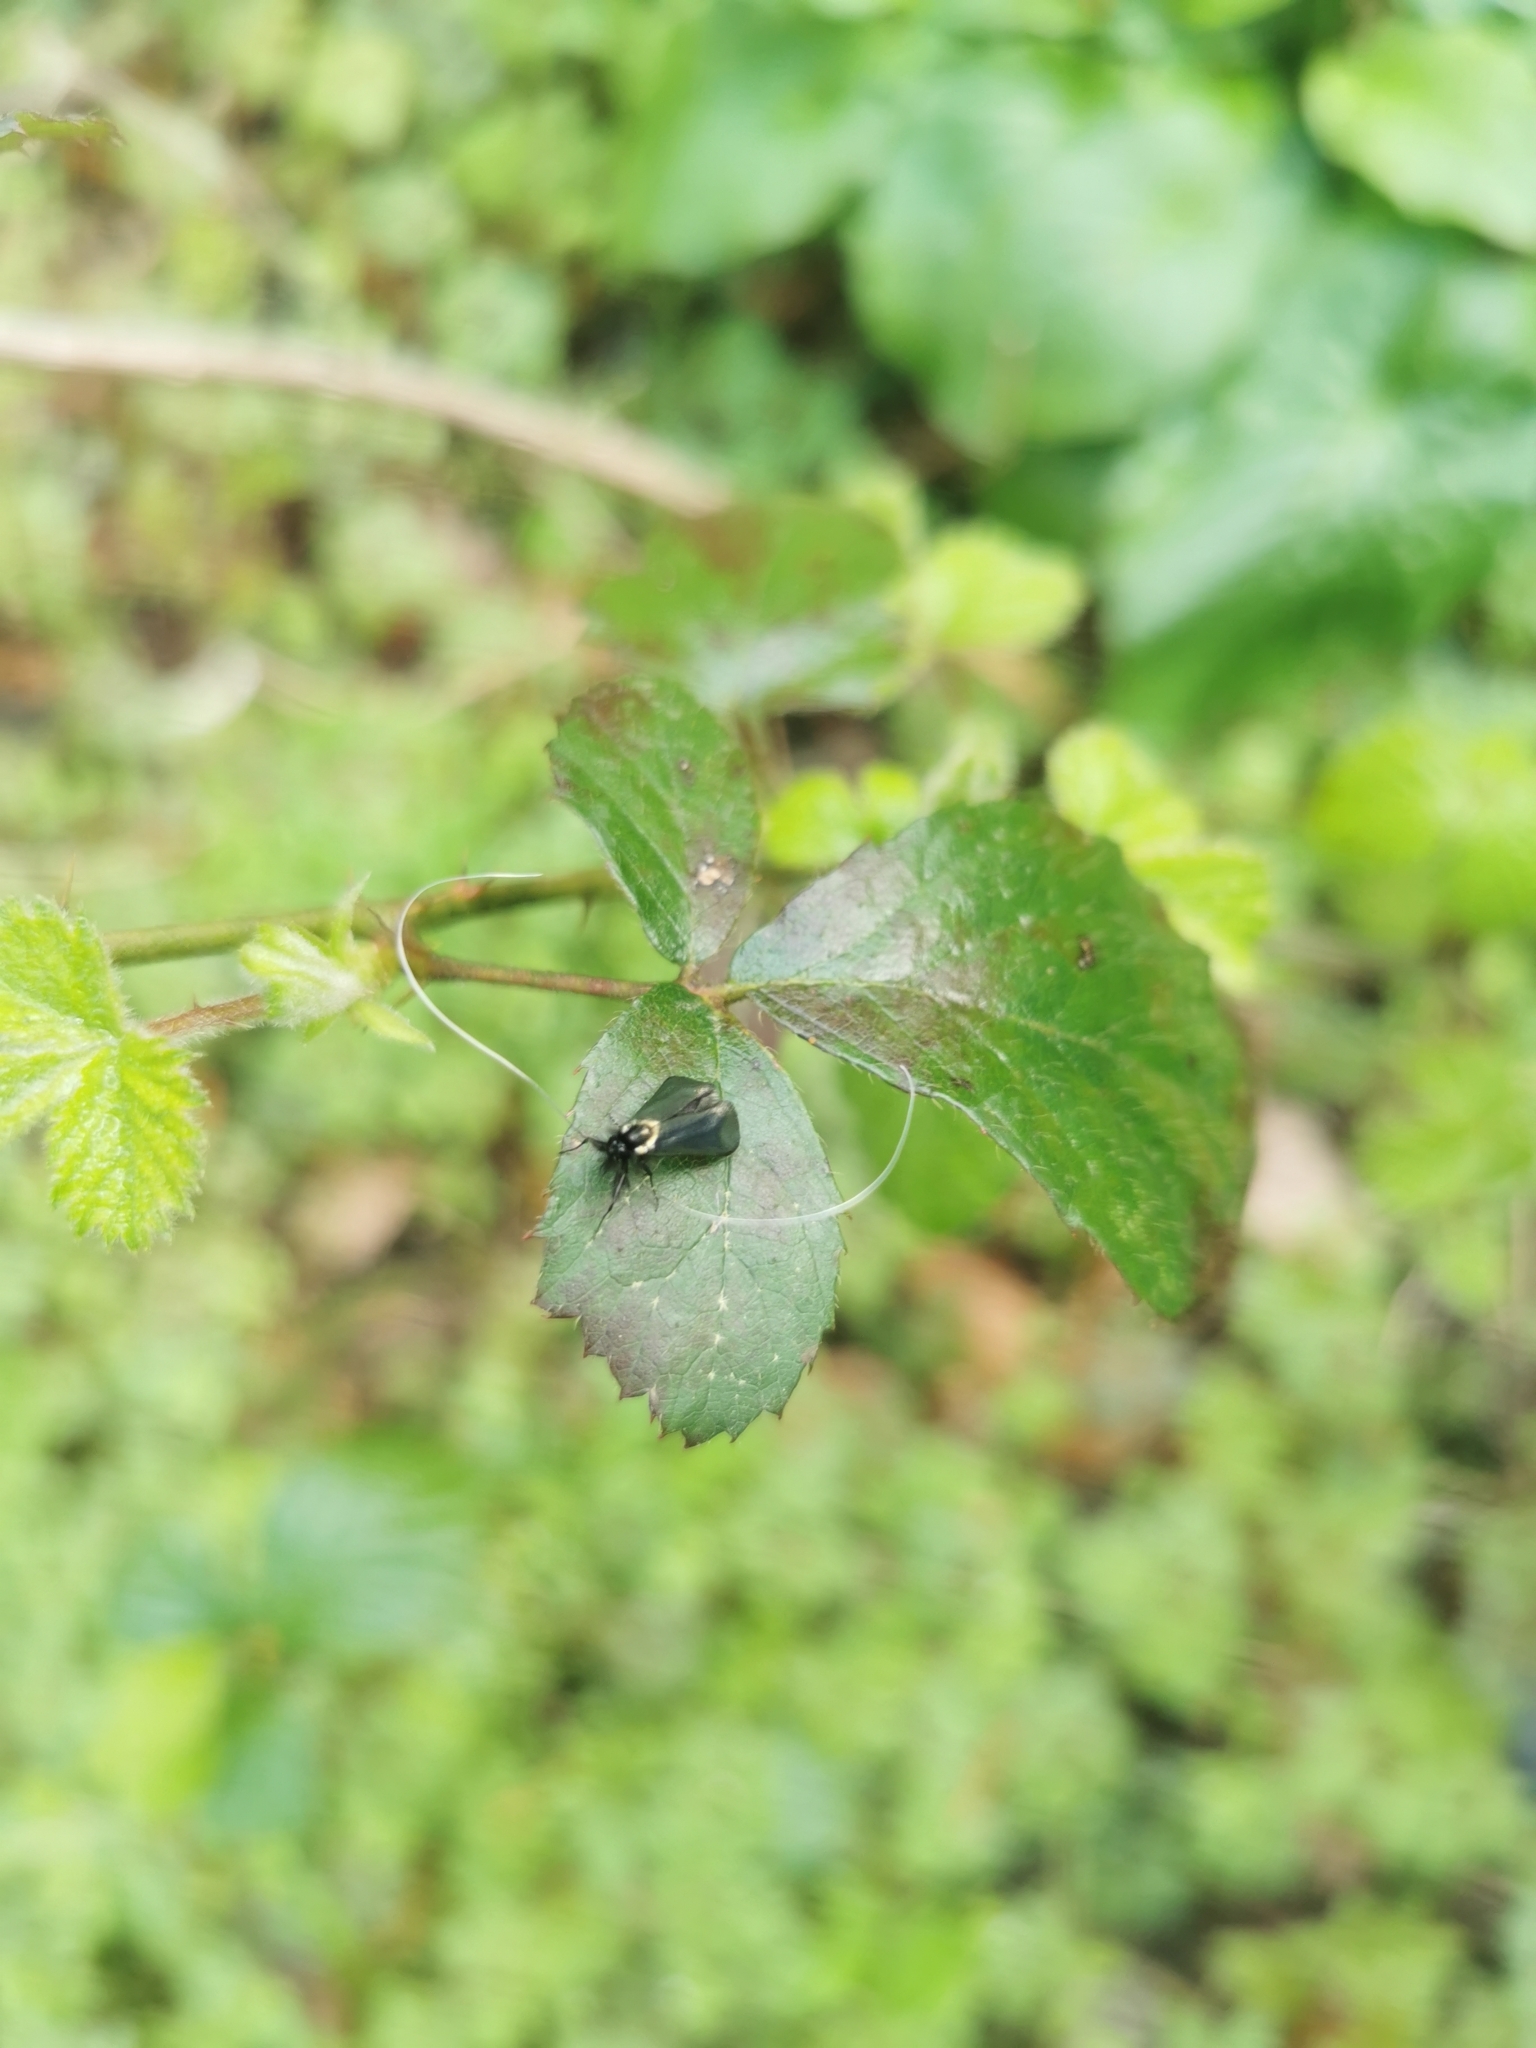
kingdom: Animalia
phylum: Arthropoda
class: Insecta
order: Lepidoptera
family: Adelidae
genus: Adela
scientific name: Adela viridella
